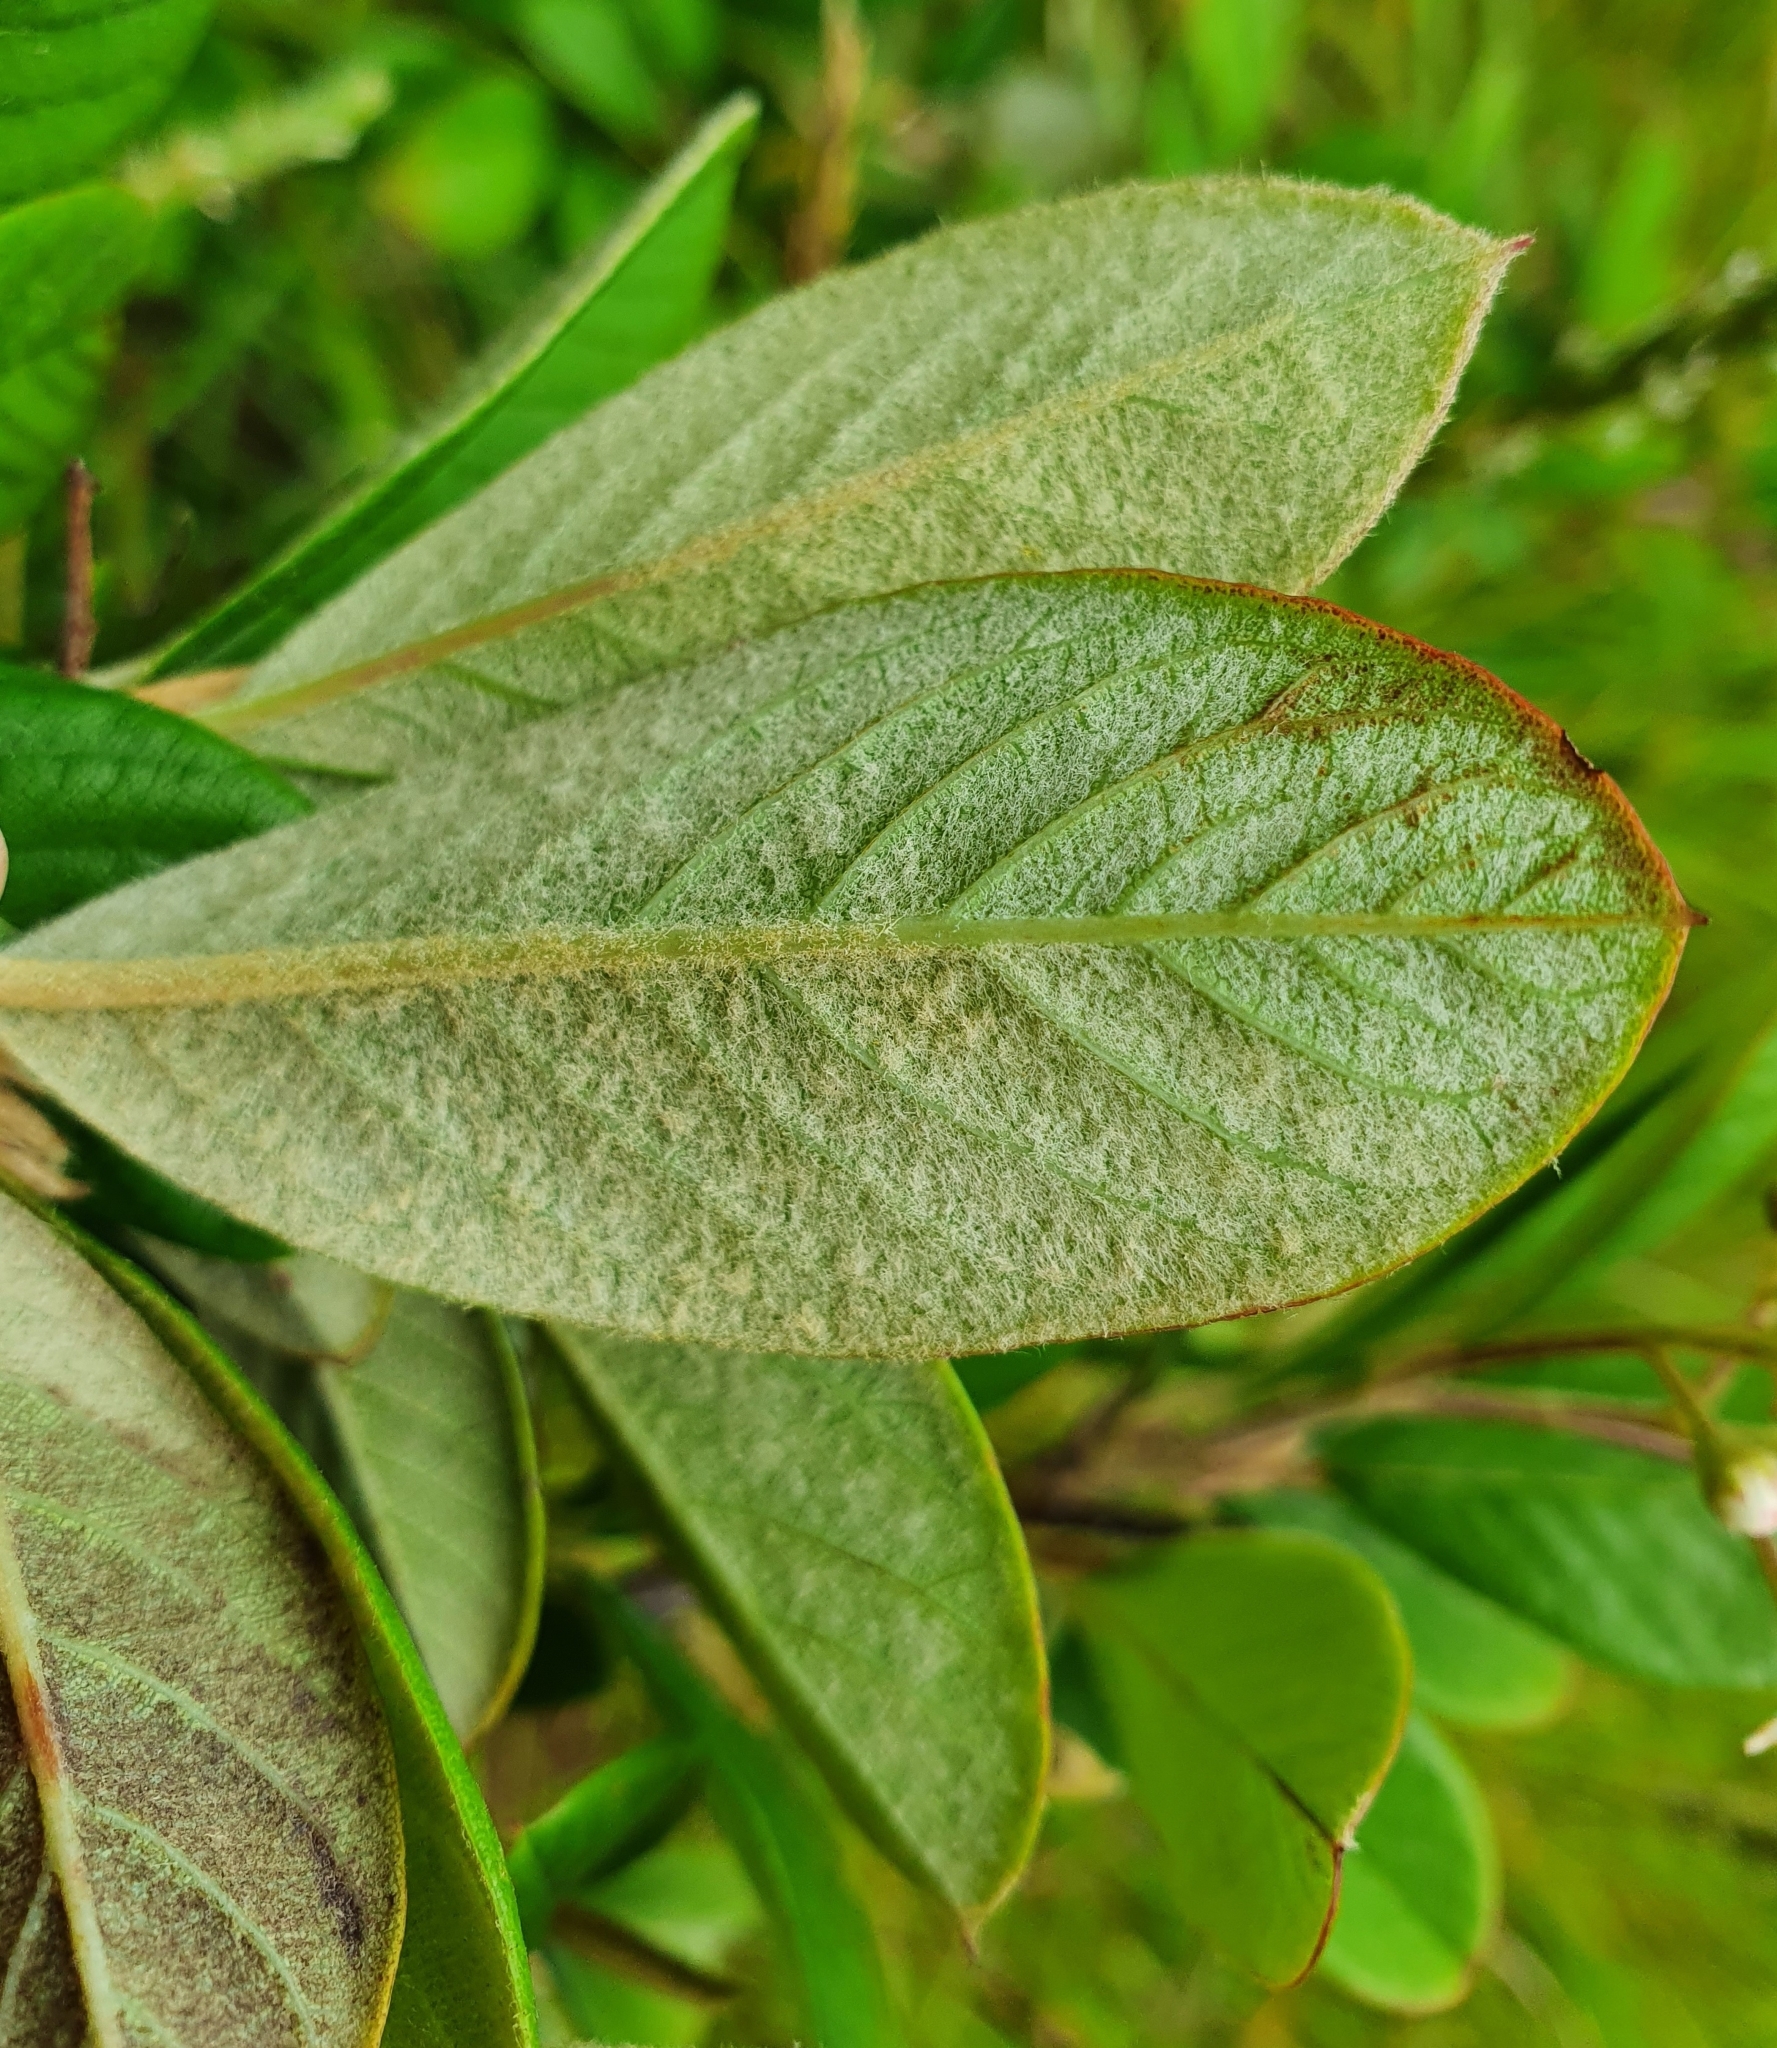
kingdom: Plantae
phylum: Tracheophyta
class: Magnoliopsida
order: Rosales
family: Rosaceae
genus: Cotoneaster
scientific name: Cotoneaster coriaceus
